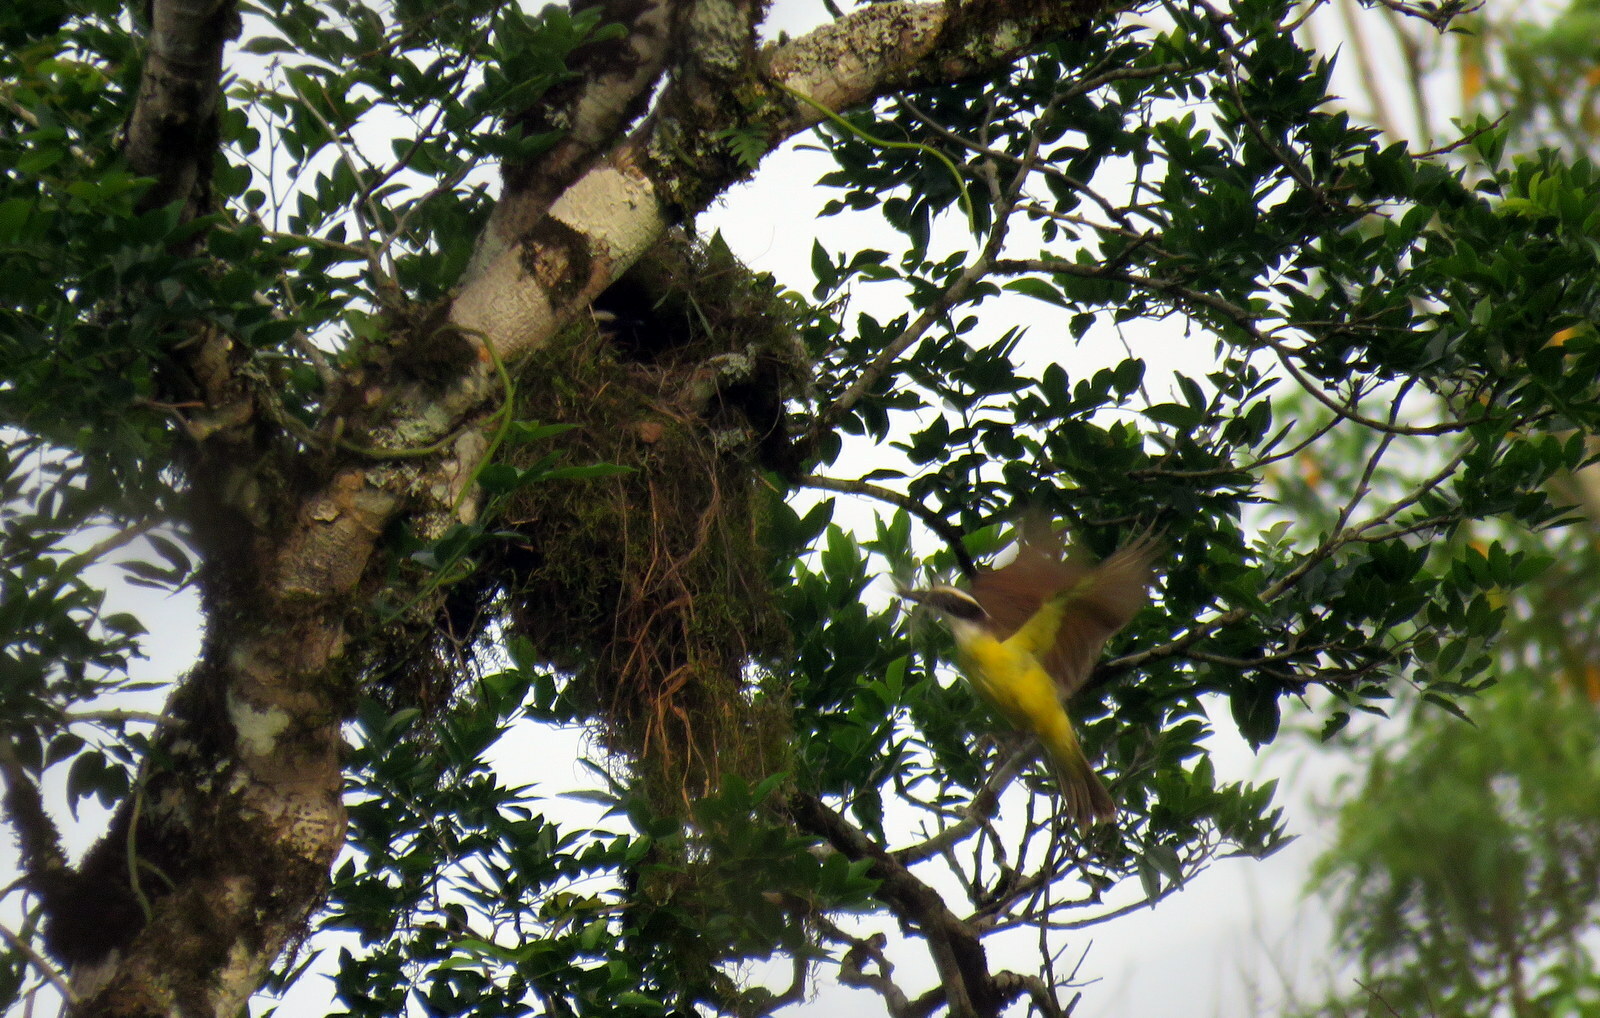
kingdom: Animalia
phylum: Chordata
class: Aves
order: Passeriformes
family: Tyrannidae
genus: Pitangus
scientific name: Pitangus sulphuratus
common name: Great kiskadee
